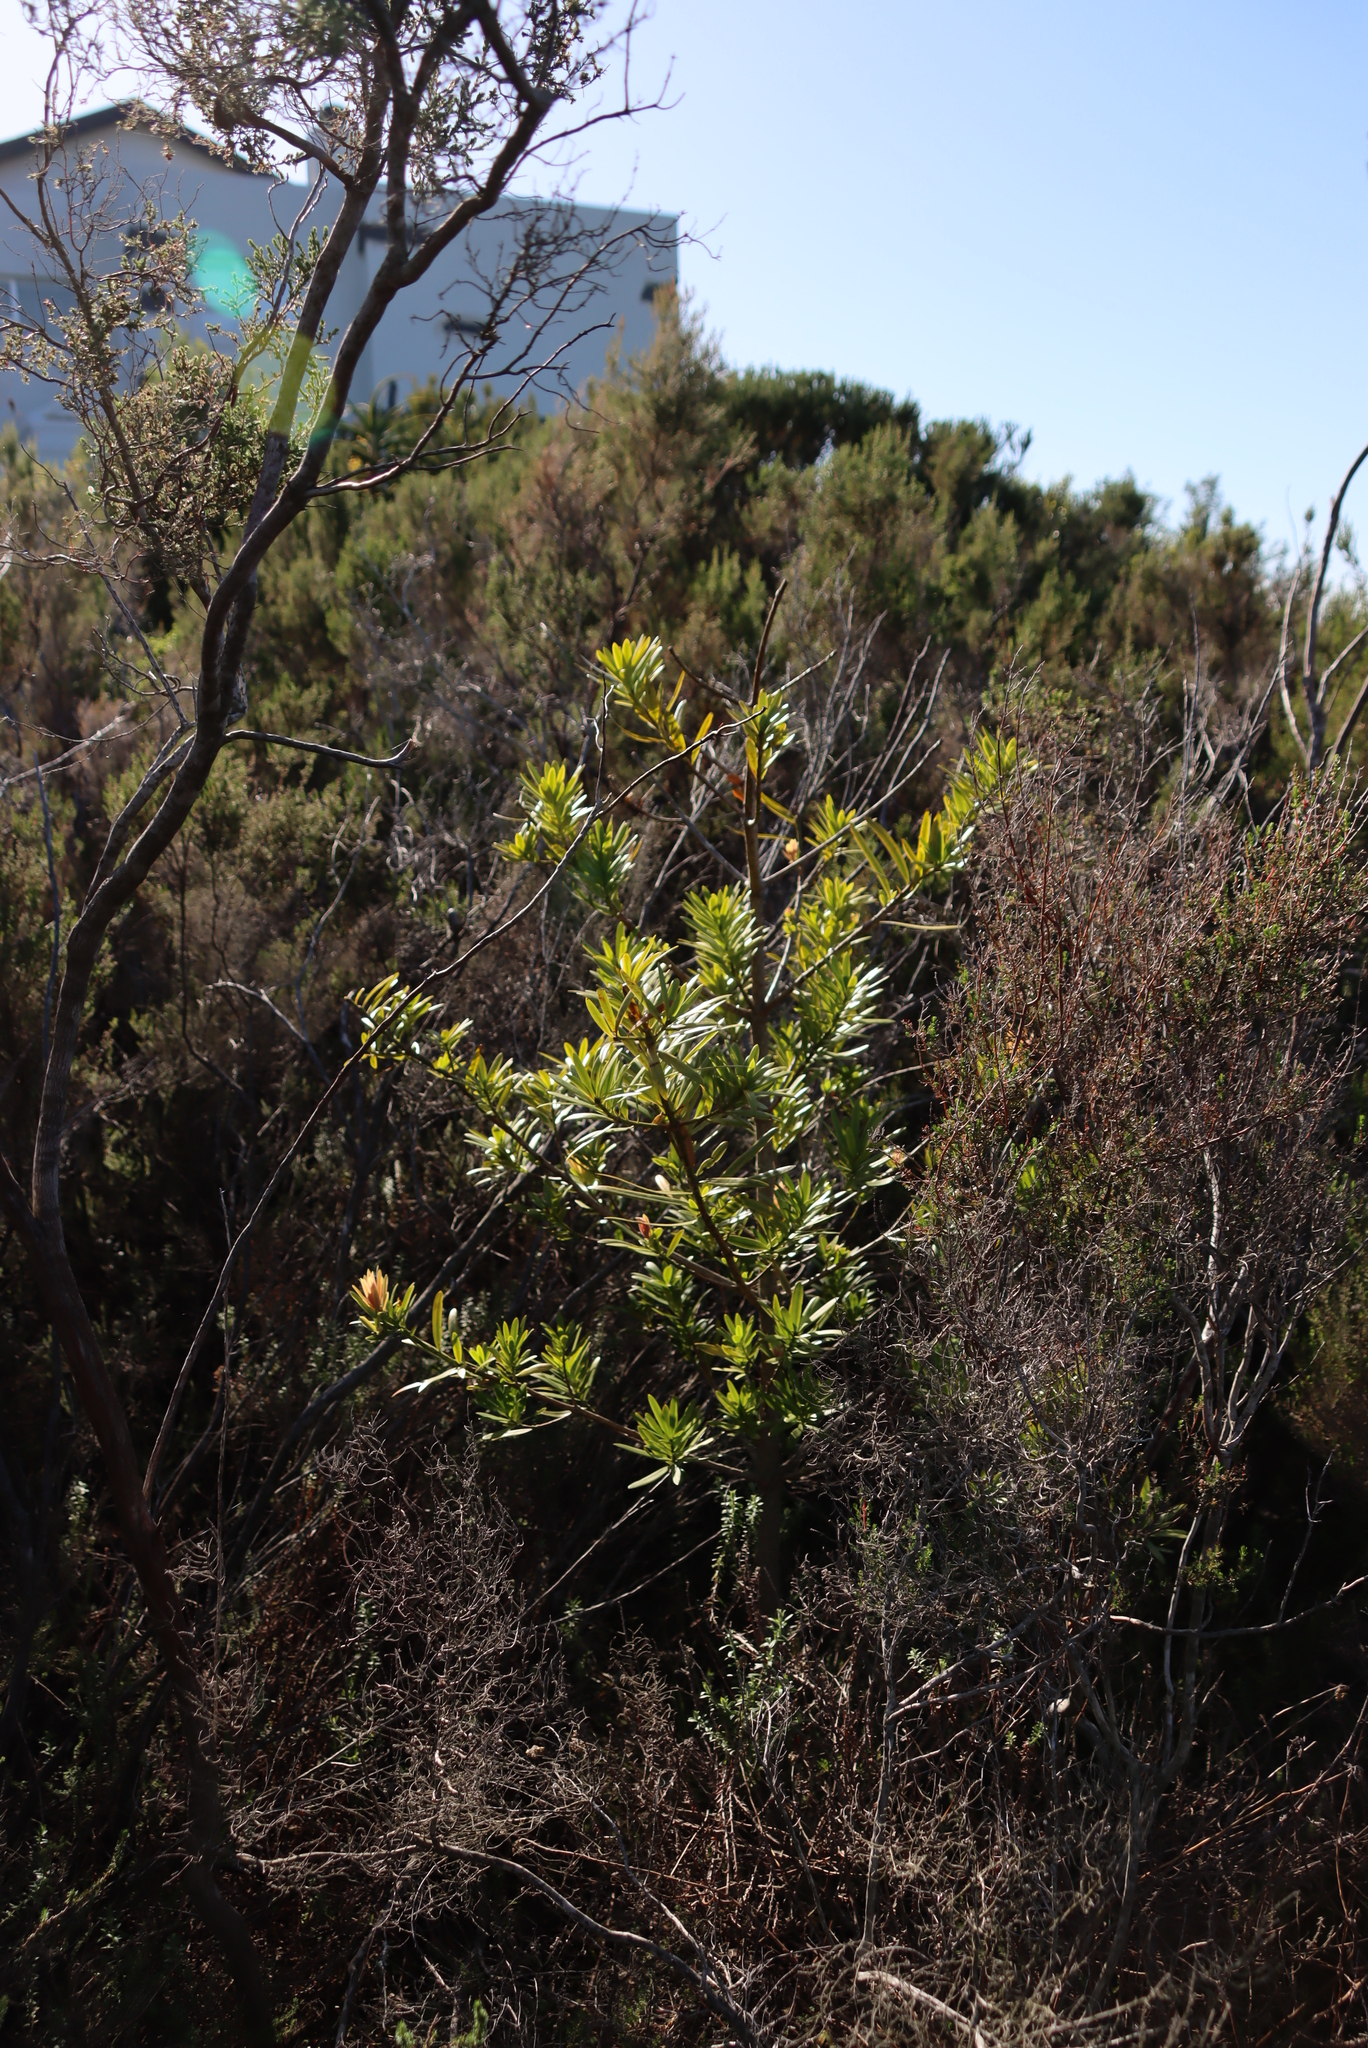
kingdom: Plantae
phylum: Tracheophyta
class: Pinopsida
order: Pinales
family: Podocarpaceae
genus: Afrocarpus
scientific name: Afrocarpus falcatus
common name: Bastard yellowwood
